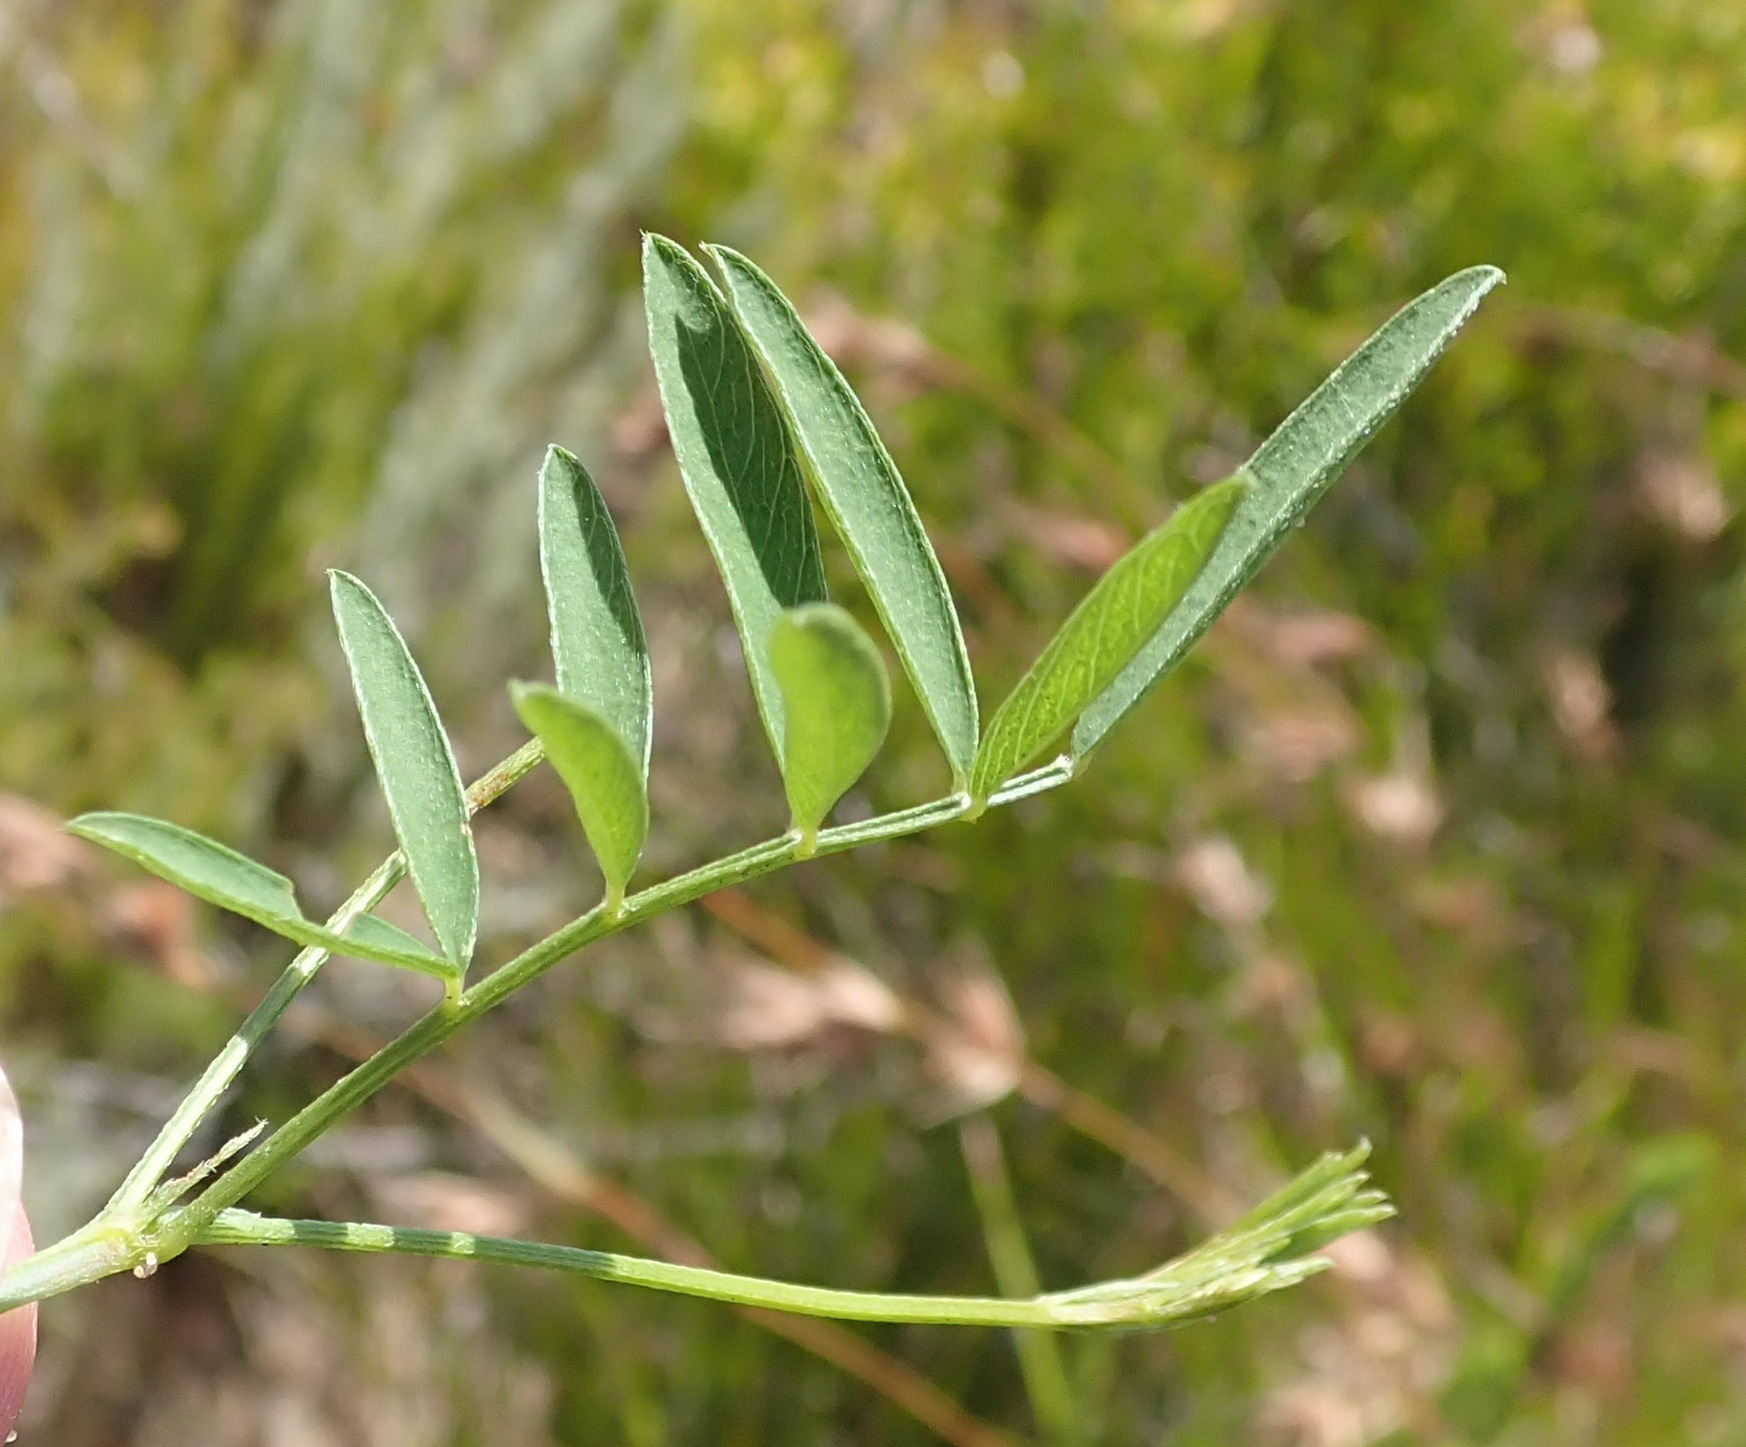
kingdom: Plantae
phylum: Tracheophyta
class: Magnoliopsida
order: Fabales
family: Fabaceae
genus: Tephrosia
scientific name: Tephrosia capensis
